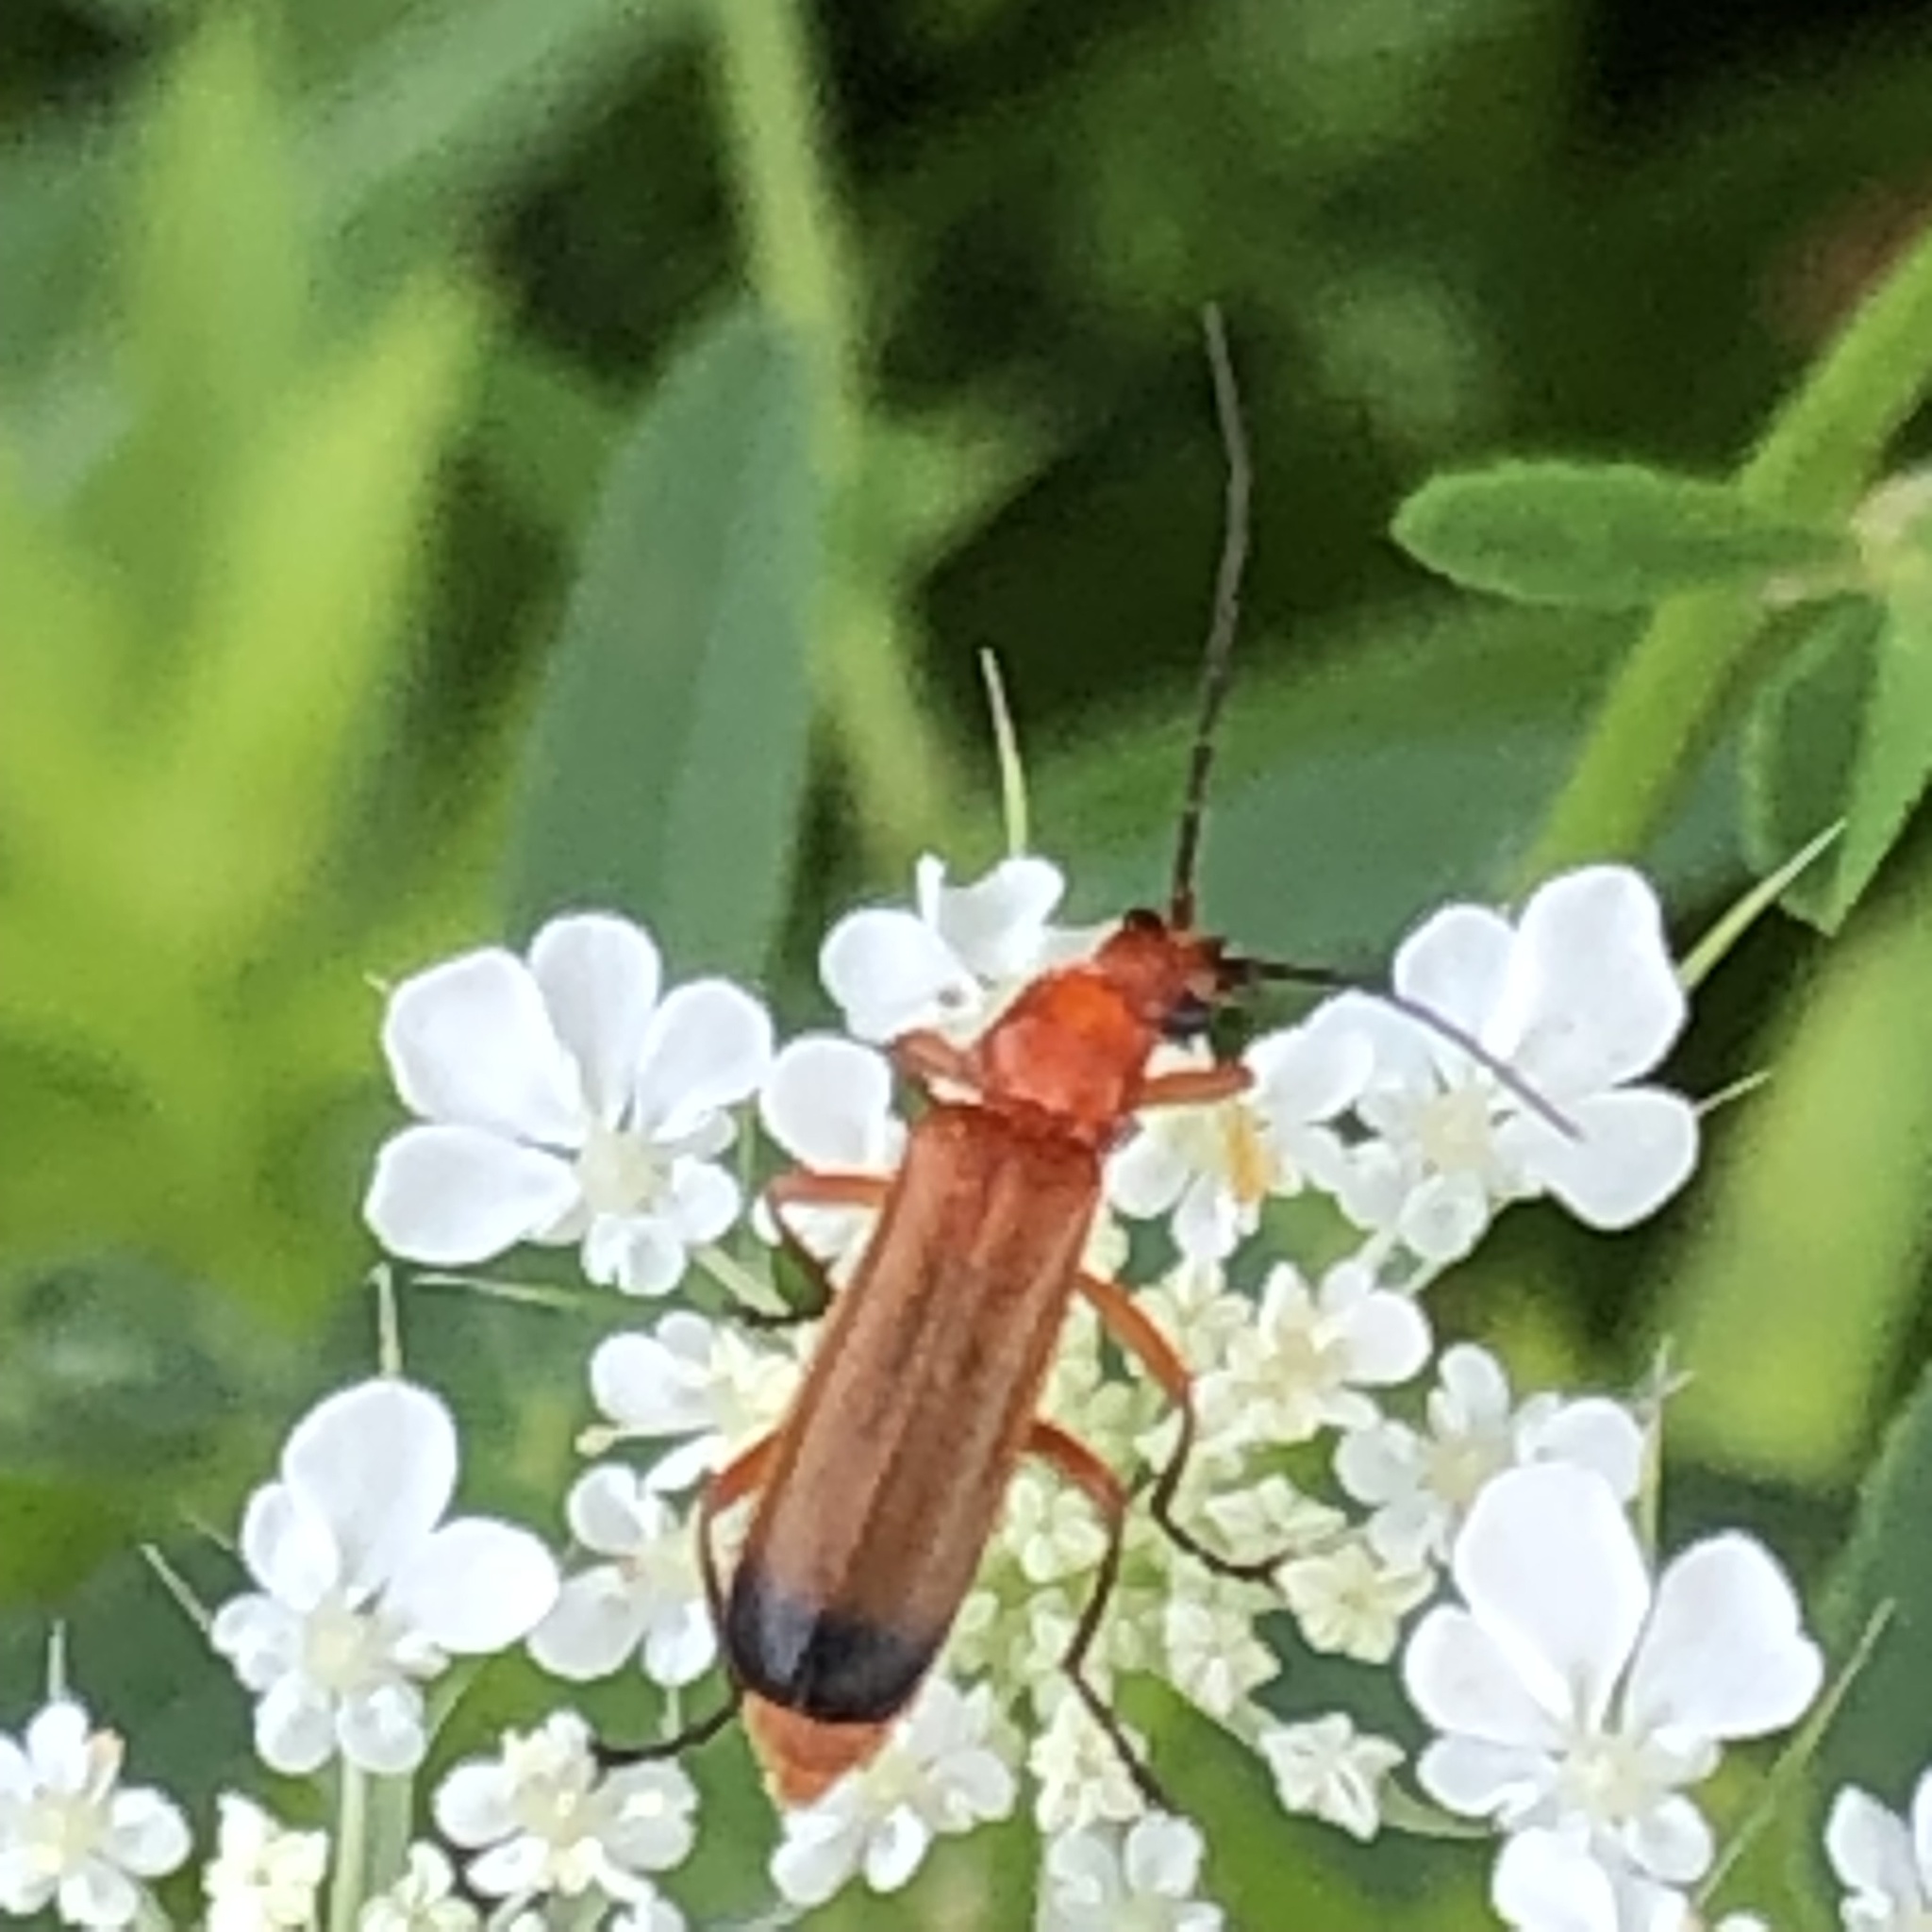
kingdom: Animalia
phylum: Arthropoda
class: Insecta
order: Coleoptera
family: Cantharidae
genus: Rhagonycha
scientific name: Rhagonycha fulva
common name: Common red soldier beetle
